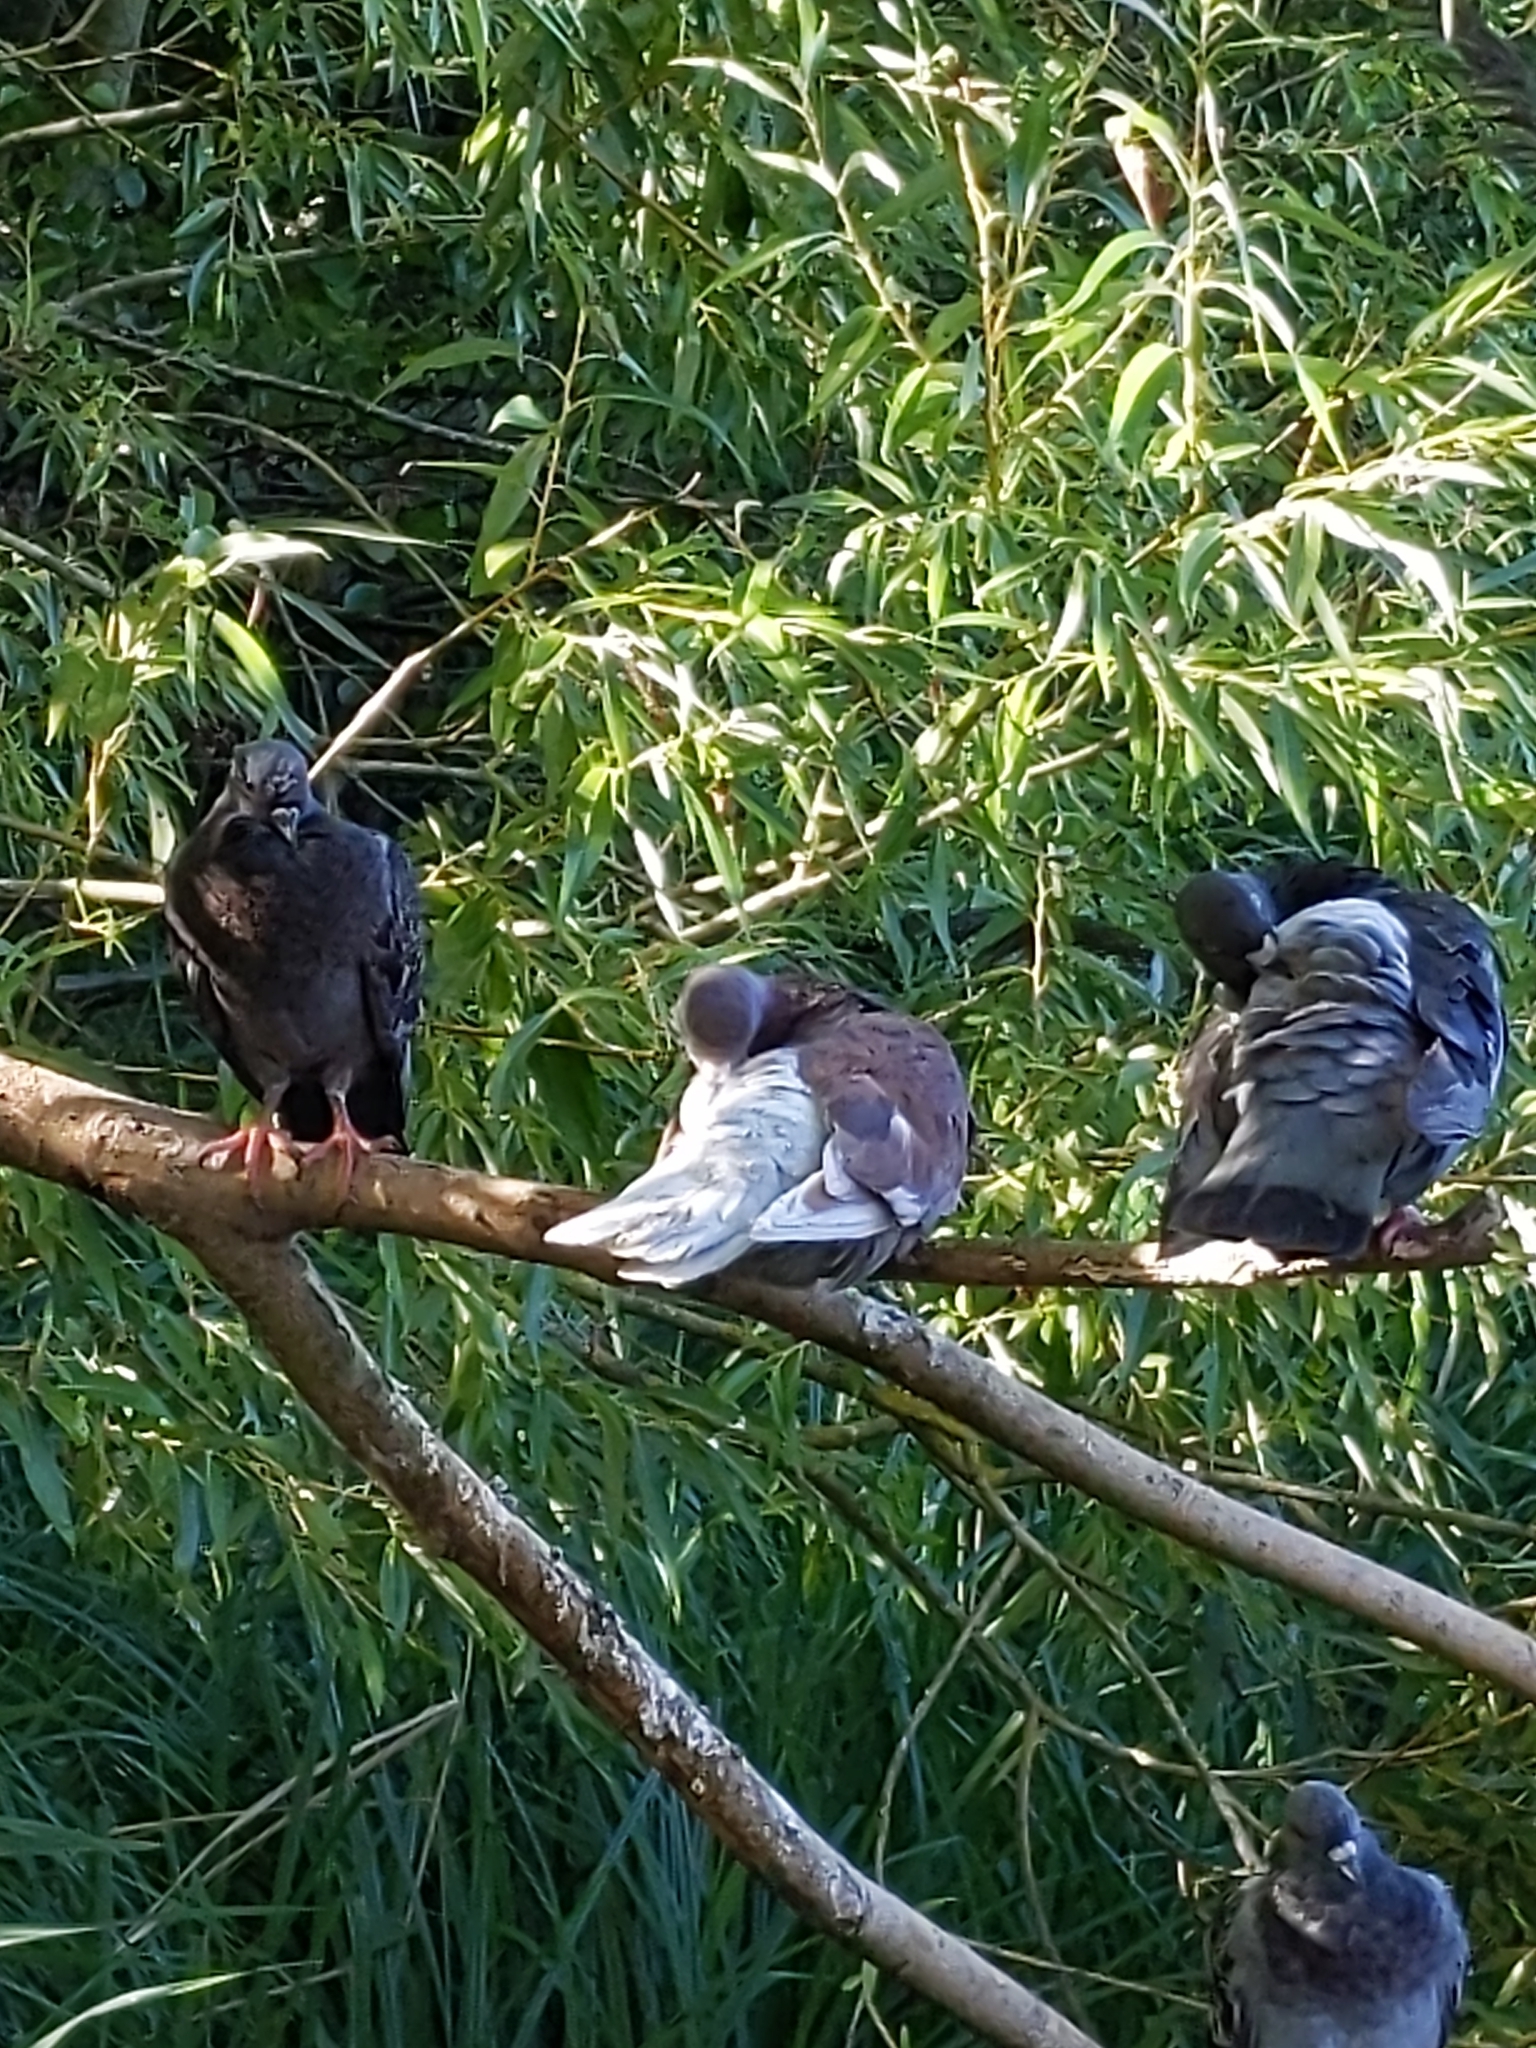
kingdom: Animalia
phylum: Chordata
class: Aves
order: Columbiformes
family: Columbidae
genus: Columba
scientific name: Columba livia
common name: Rock pigeon
